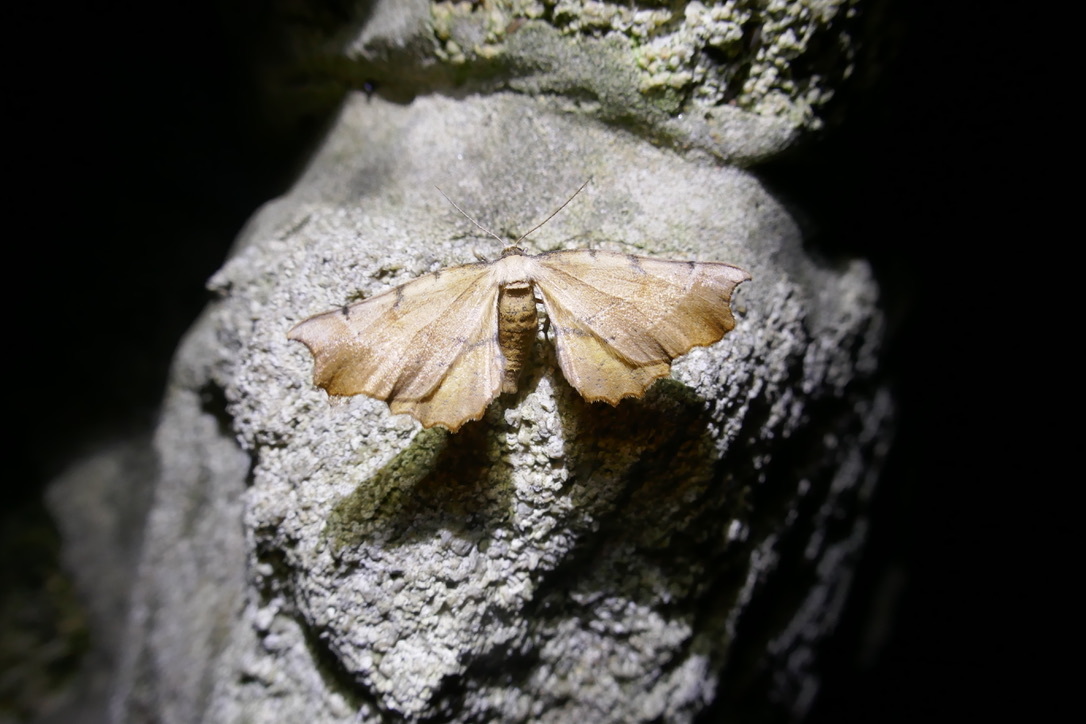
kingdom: Animalia
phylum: Arthropoda
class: Insecta
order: Lepidoptera
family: Geometridae
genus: Artiora
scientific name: Artiora evonymaria
